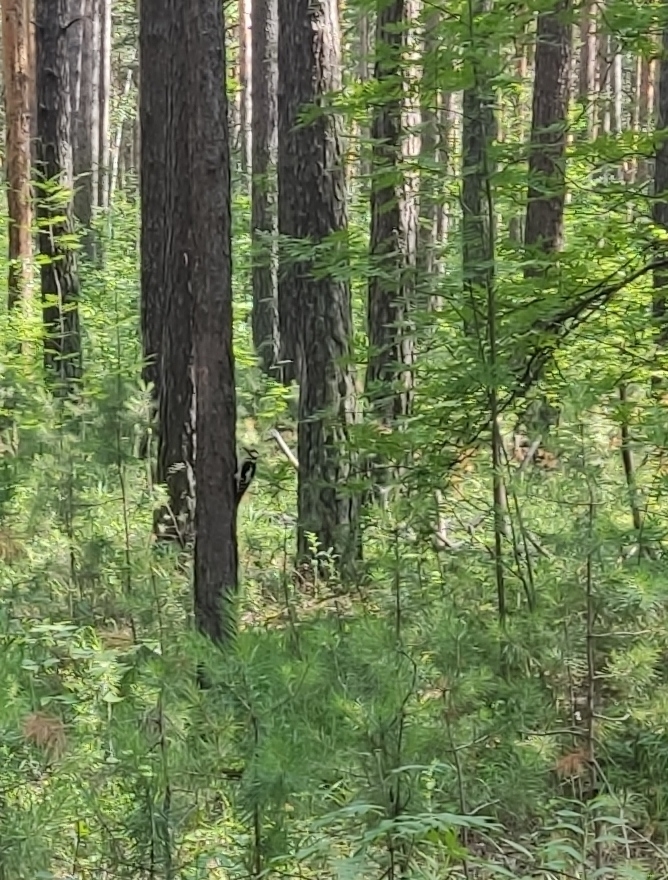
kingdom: Animalia
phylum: Chordata
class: Aves
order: Piciformes
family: Picidae
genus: Dendrocopos
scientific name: Dendrocopos major
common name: Great spotted woodpecker
